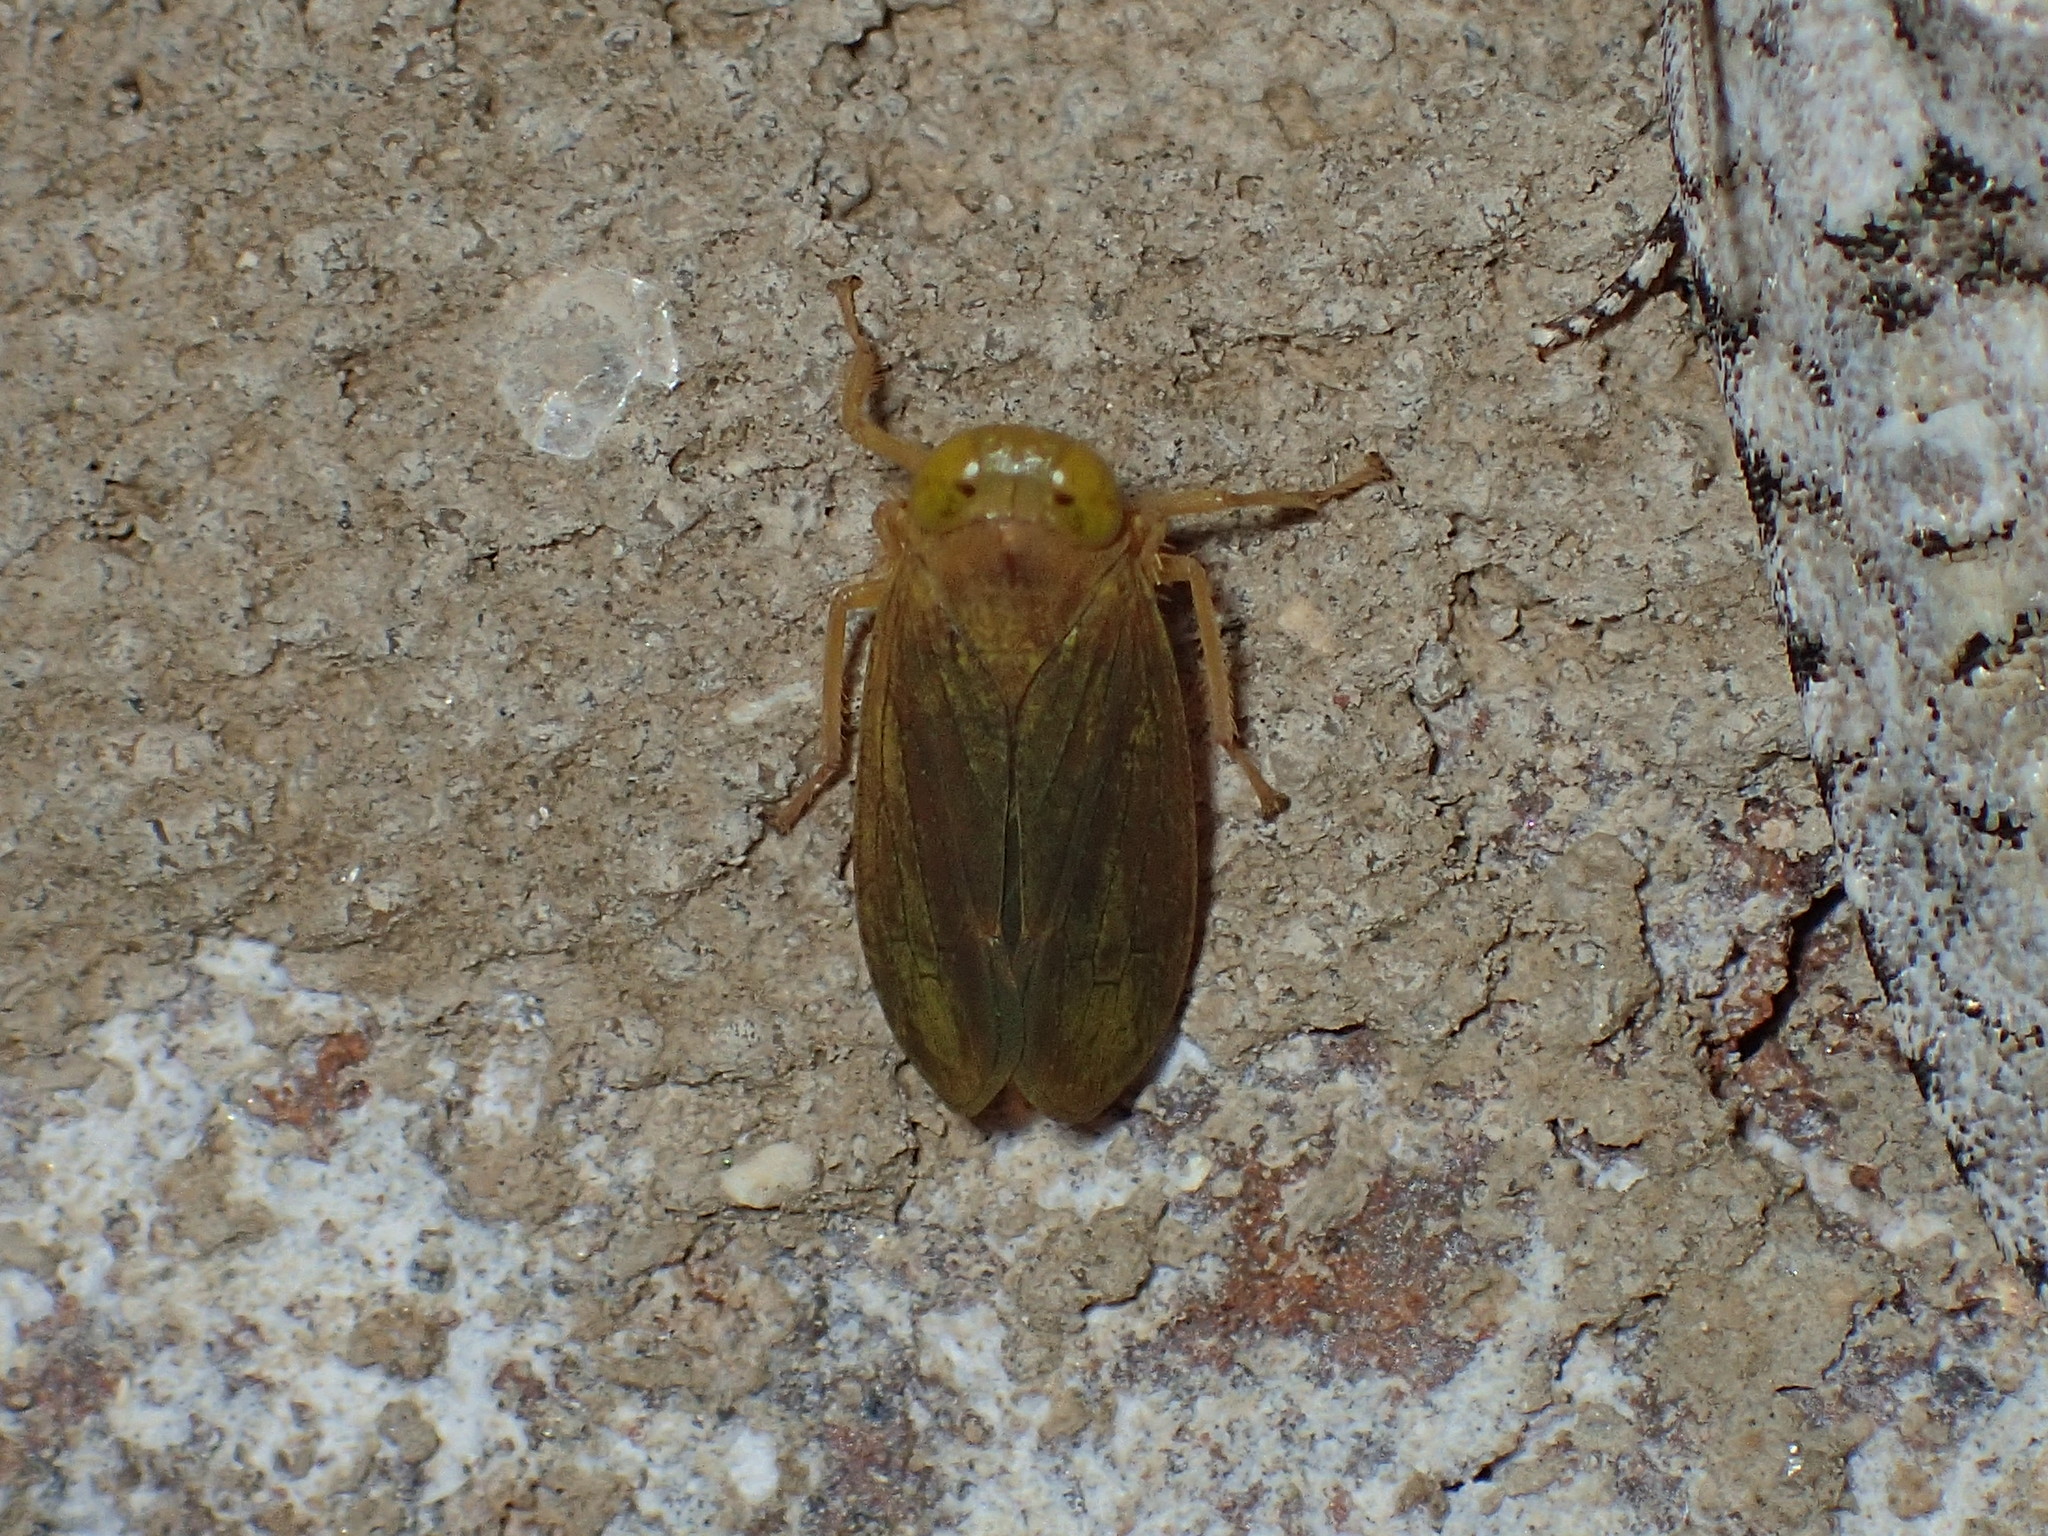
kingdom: Animalia
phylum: Arthropoda
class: Insecta
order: Hemiptera
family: Cicadellidae
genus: Jikradia
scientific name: Jikradia olitoria
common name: Coppery leafhopper
